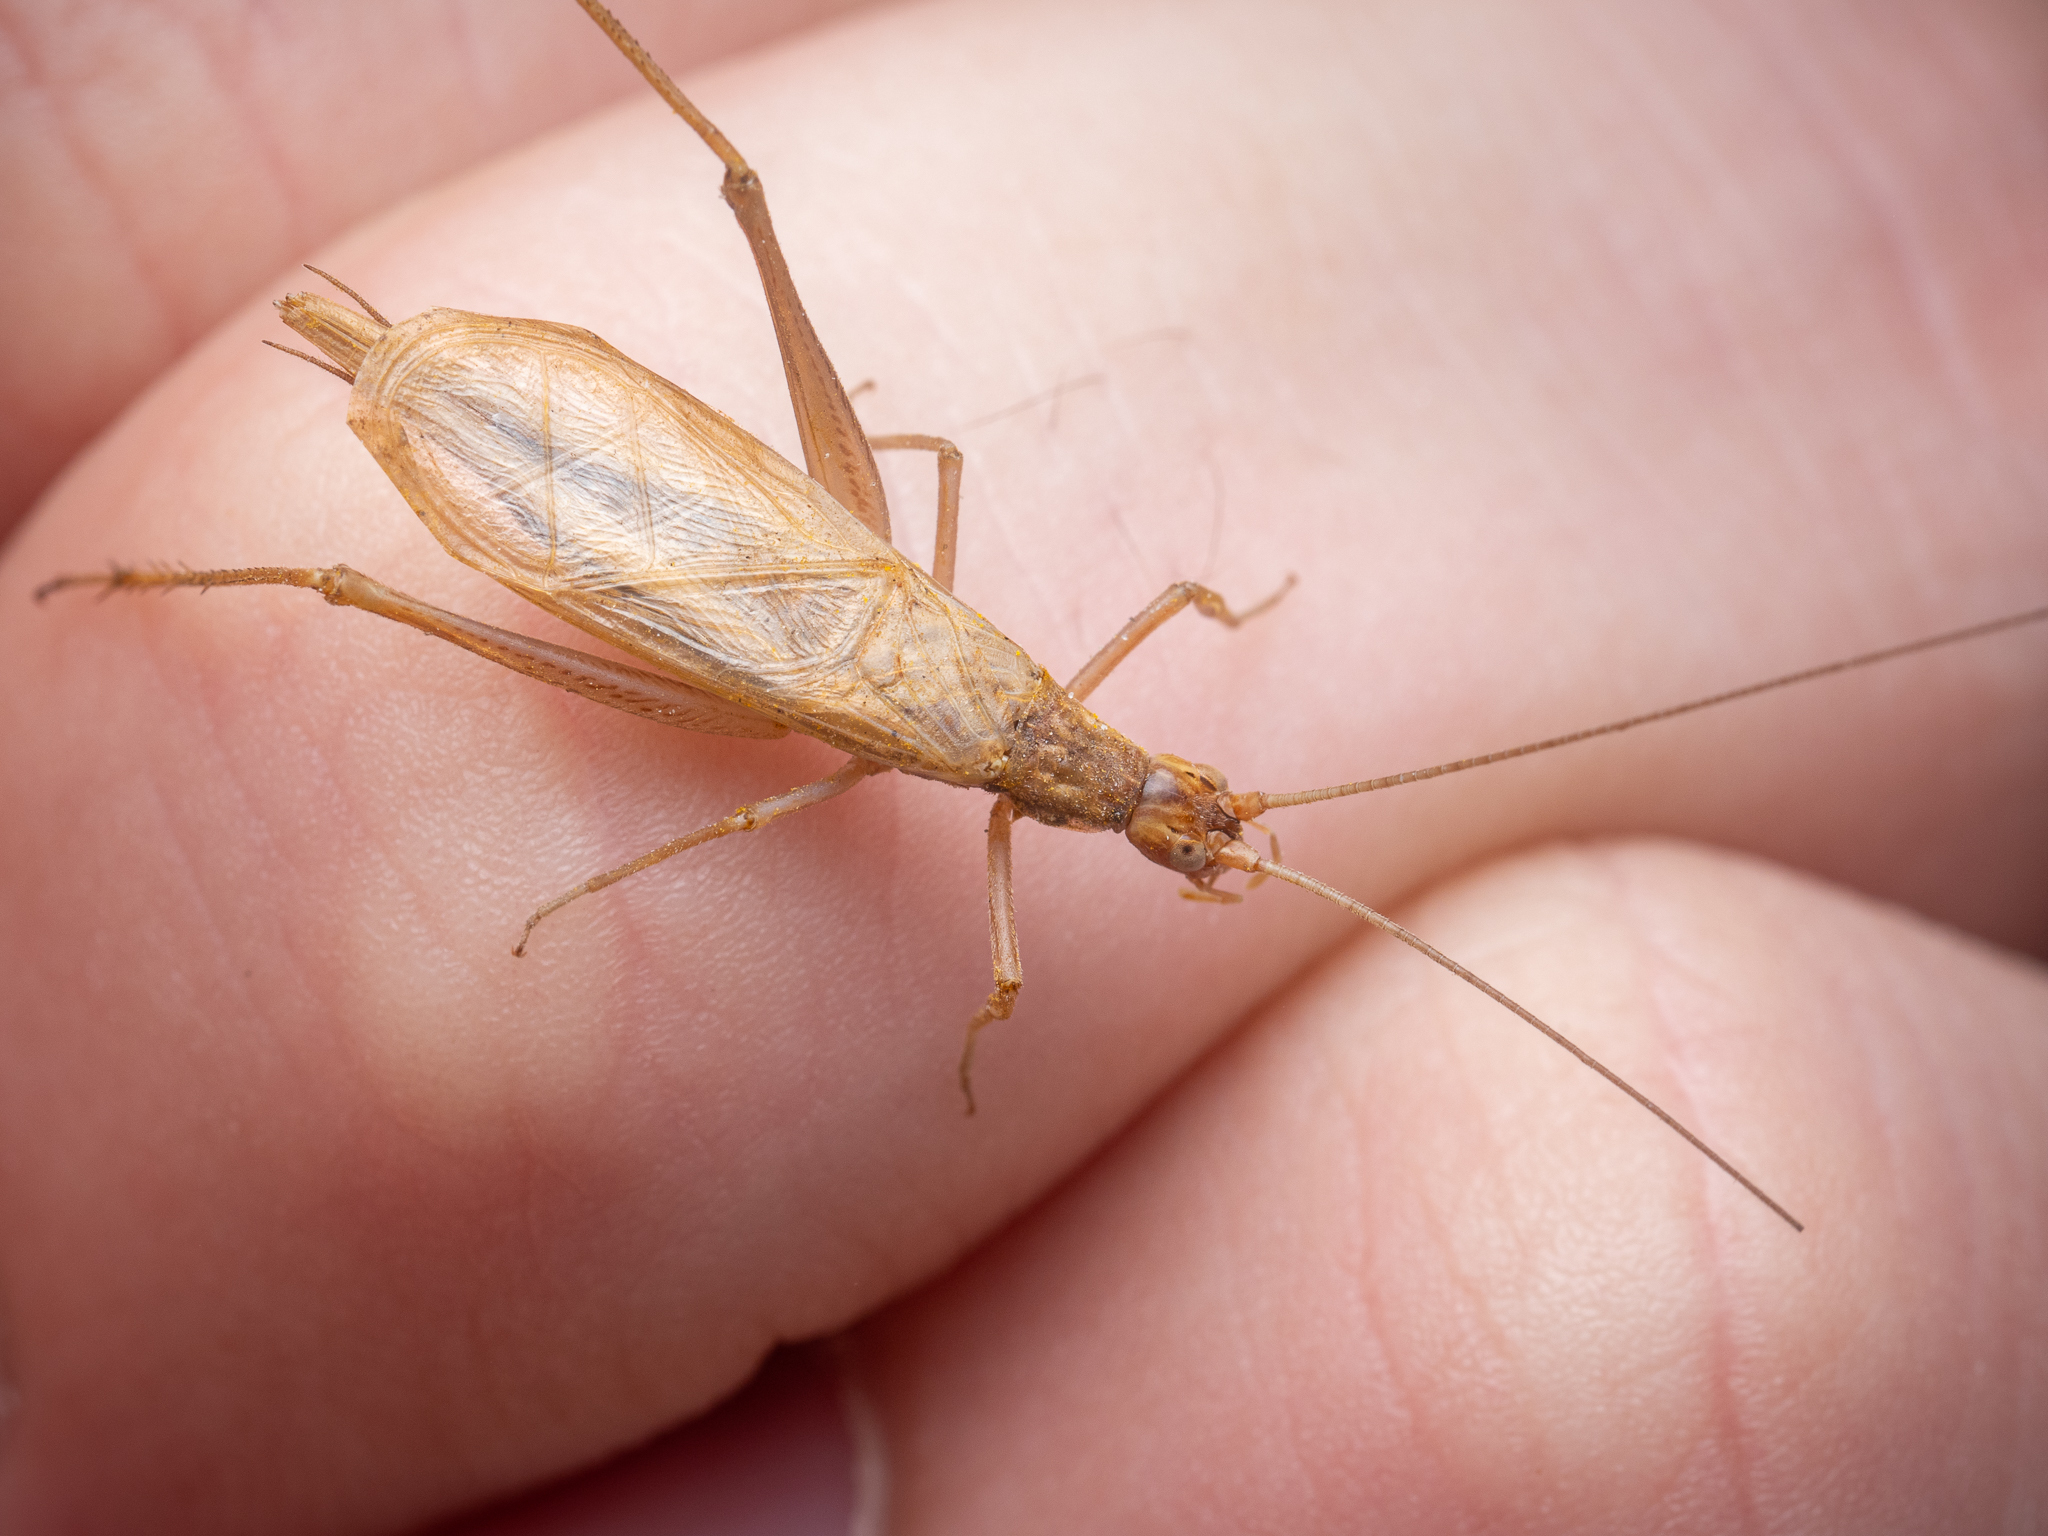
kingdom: Animalia
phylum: Arthropoda
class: Insecta
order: Orthoptera
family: Gryllidae
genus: Oecanthus
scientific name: Oecanthus pellucens
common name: Tree-cricket
